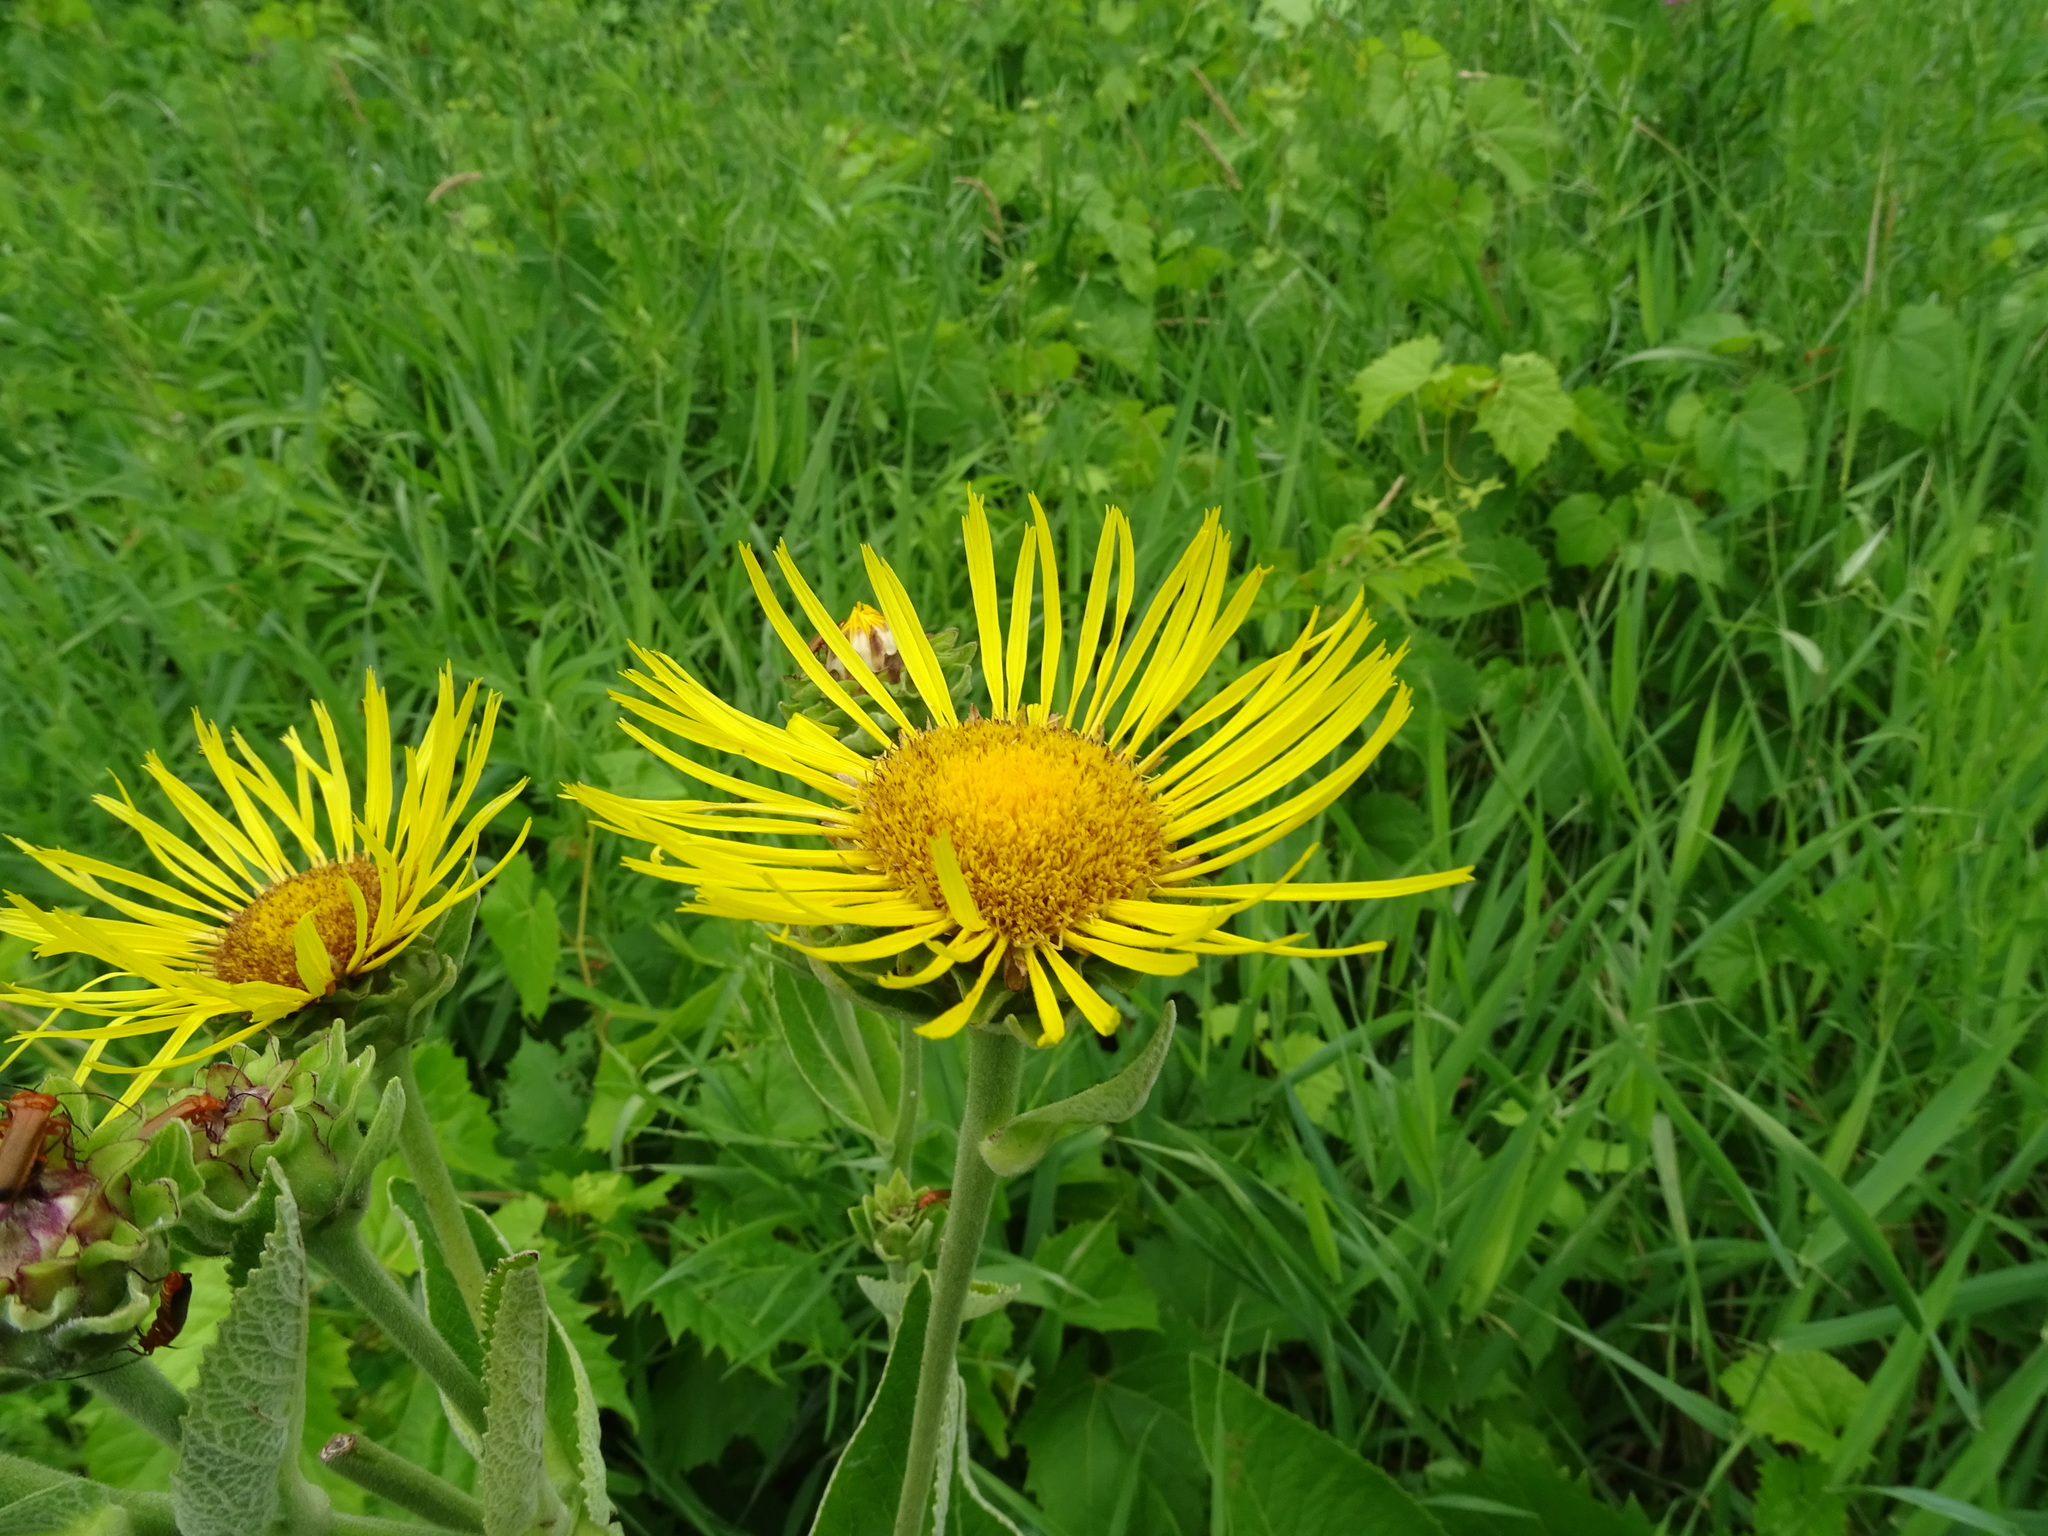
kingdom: Plantae
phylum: Tracheophyta
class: Magnoliopsida
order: Asterales
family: Asteraceae
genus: Inula
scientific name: Inula helenium
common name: Elecampane
